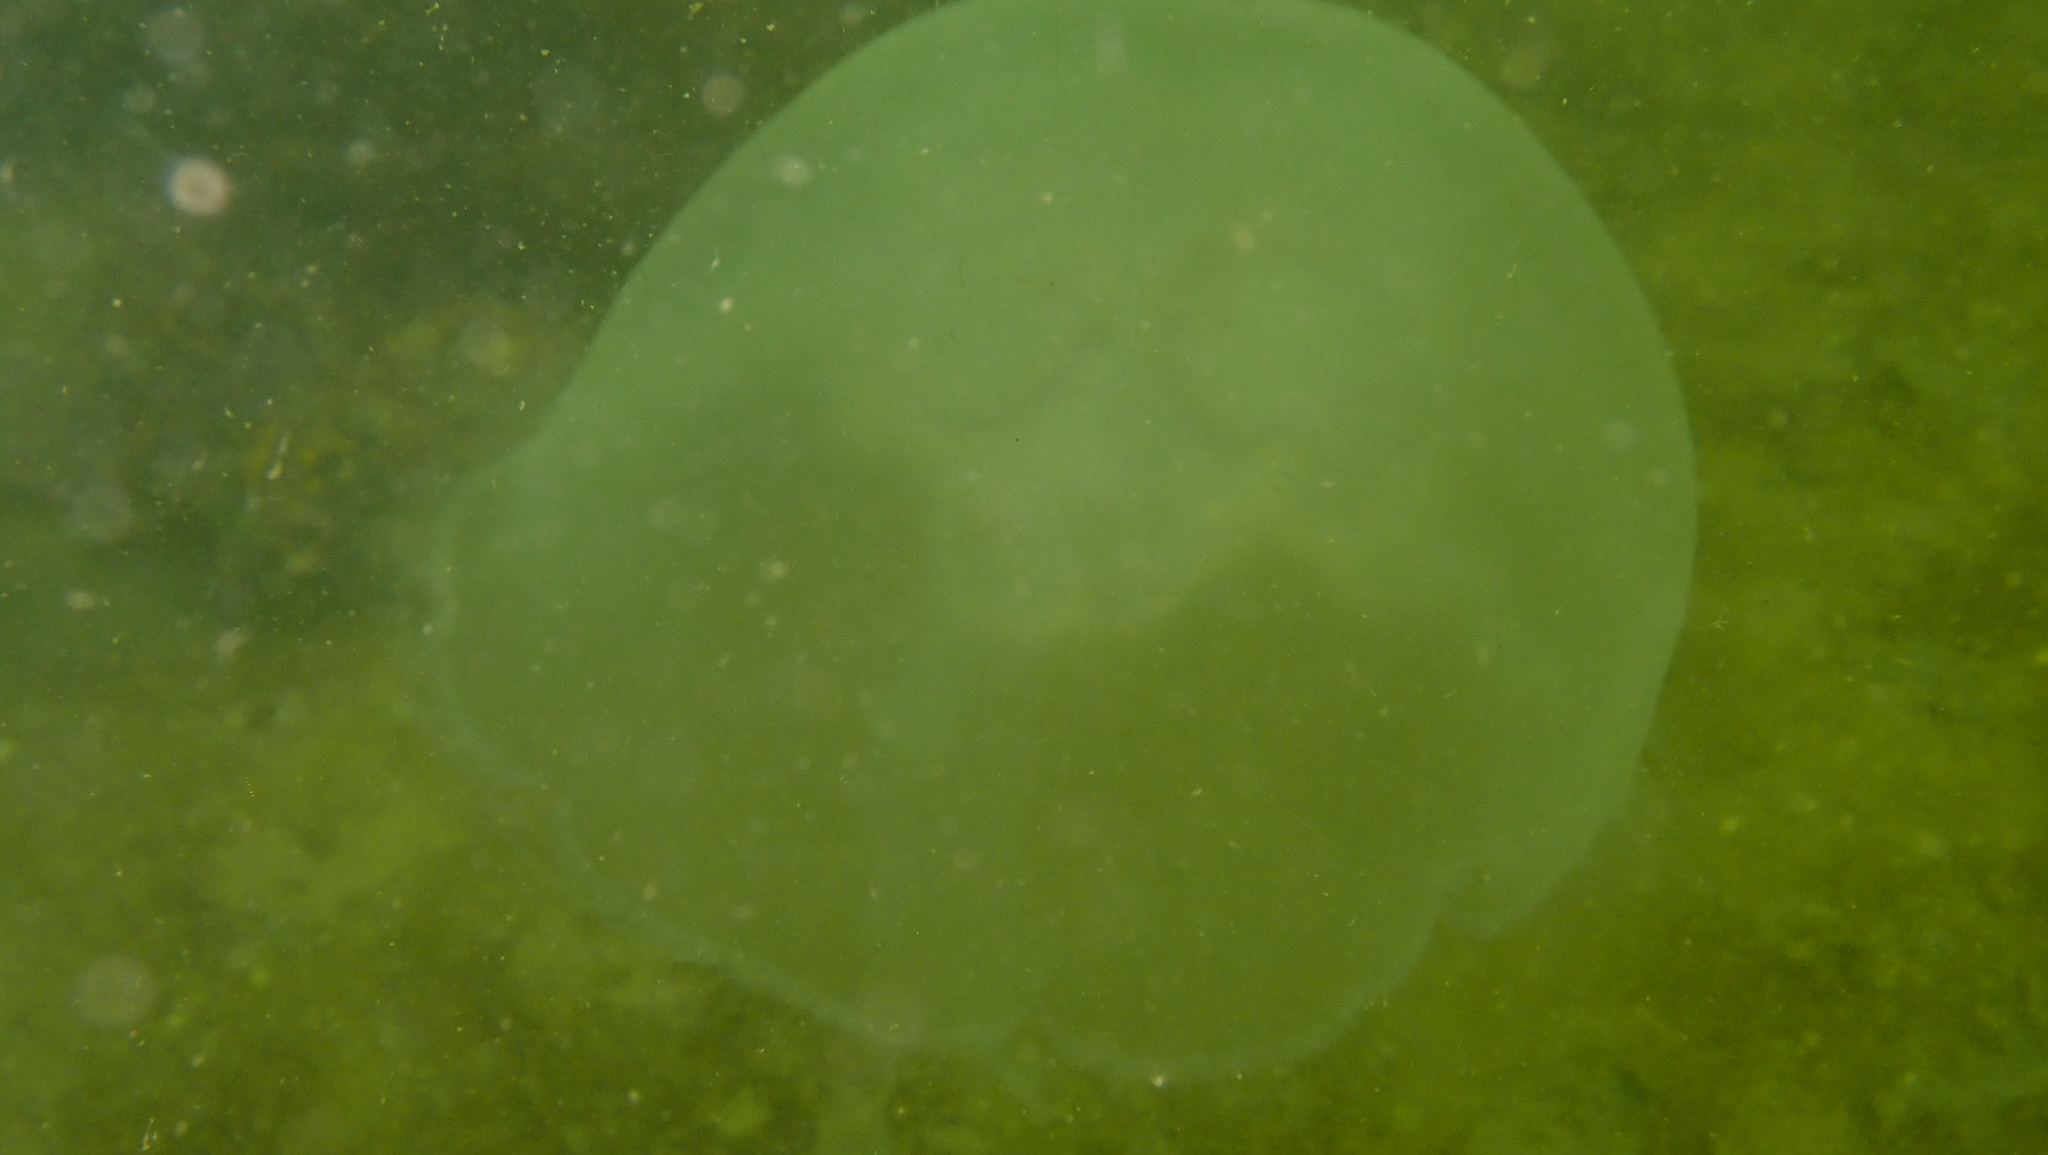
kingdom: Animalia
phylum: Cnidaria
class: Scyphozoa
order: Semaeostomeae
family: Ulmaridae
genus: Aurelia
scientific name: Aurelia aurita
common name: Moon jellyfish
